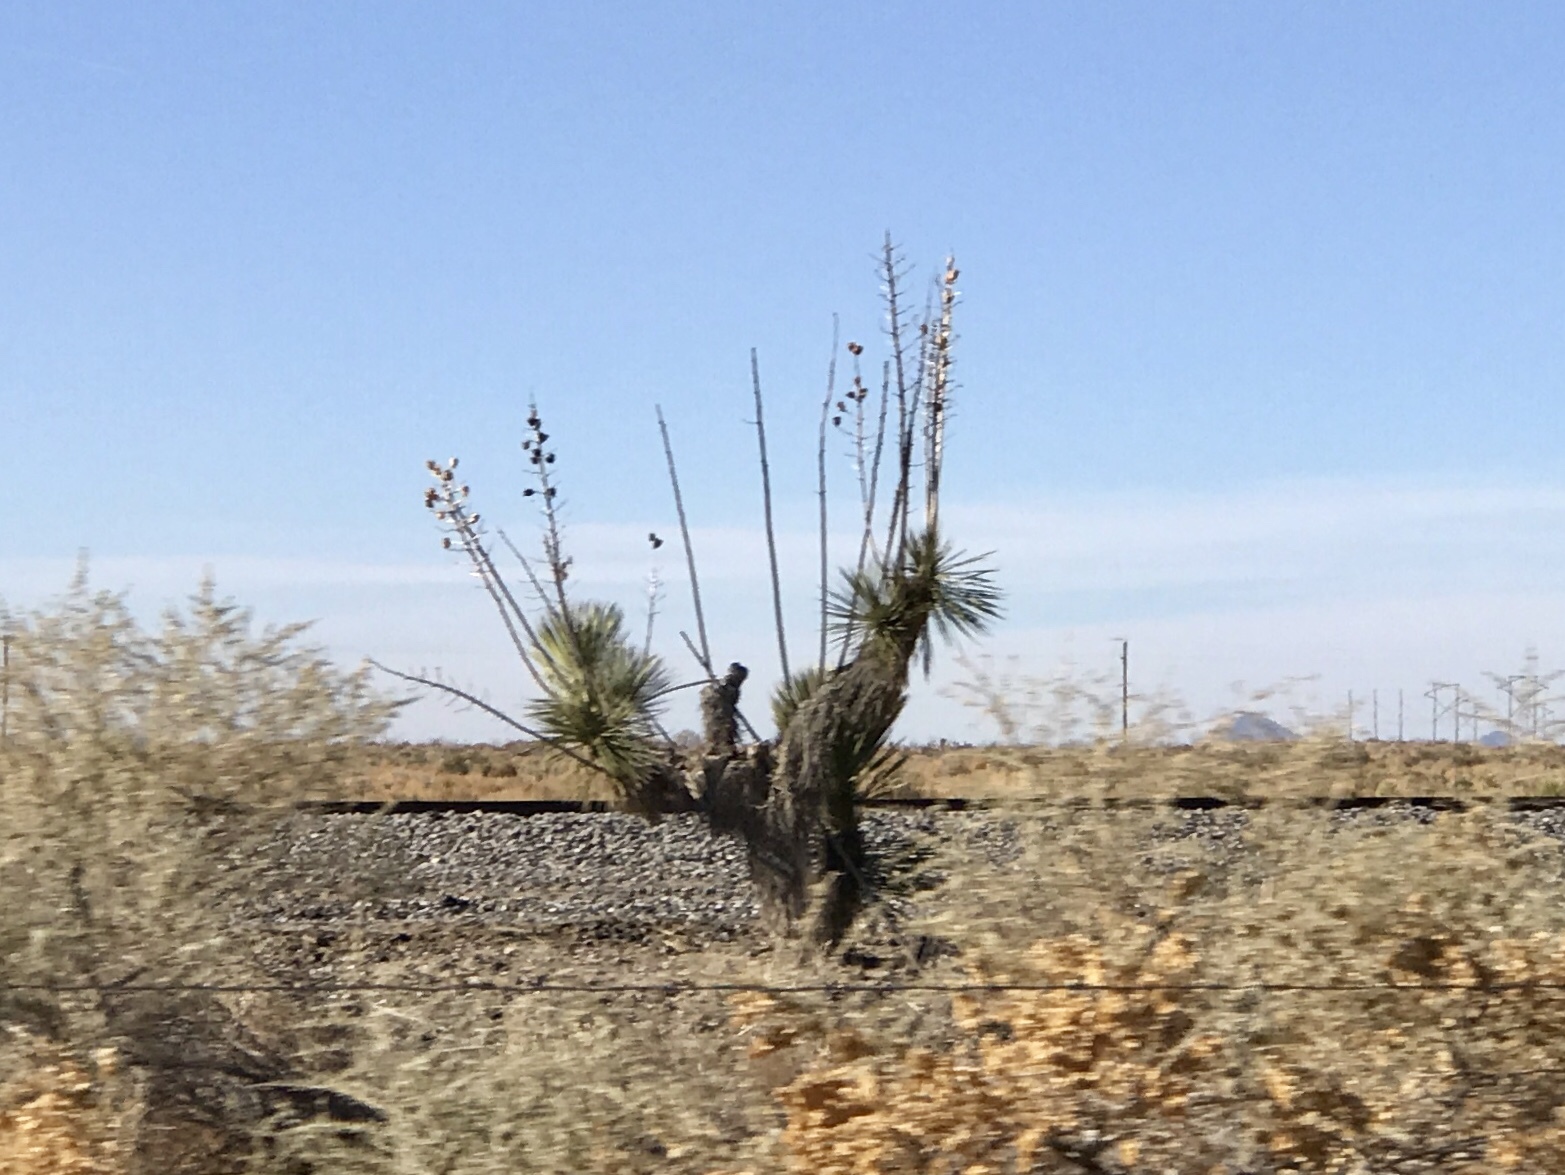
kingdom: Plantae
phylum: Tracheophyta
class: Liliopsida
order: Asparagales
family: Asparagaceae
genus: Yucca
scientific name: Yucca elata
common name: Palmella
